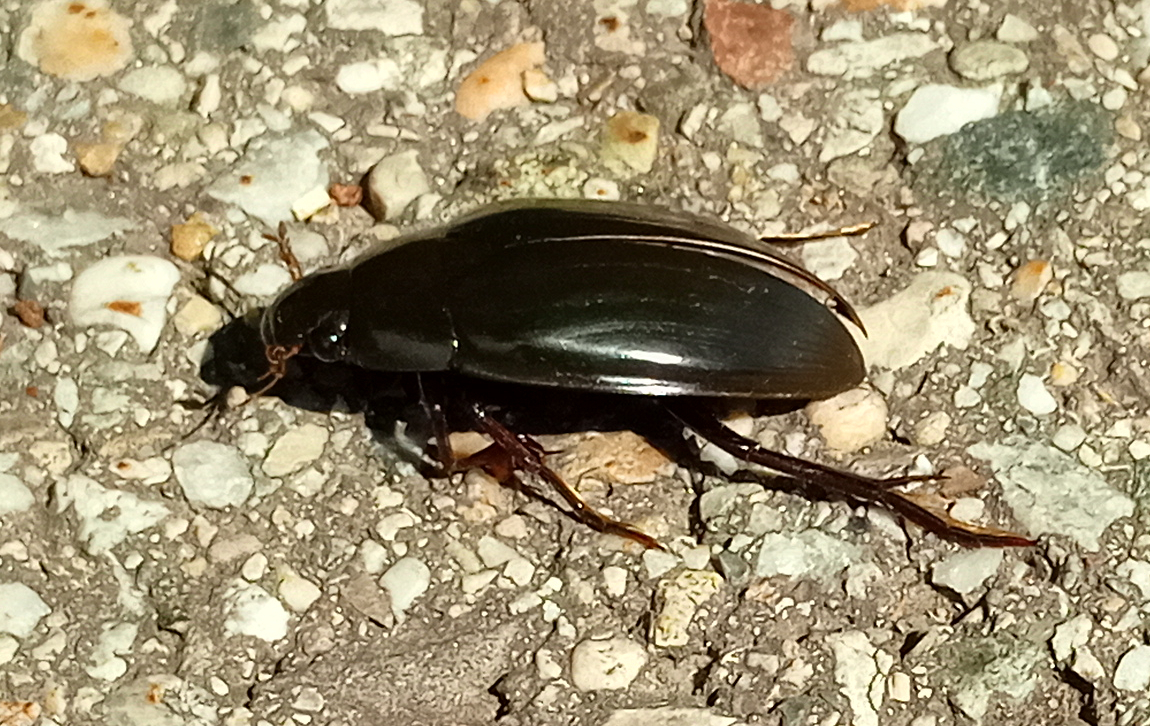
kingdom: Animalia
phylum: Arthropoda
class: Insecta
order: Coleoptera
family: Hydrophilidae
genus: Hydrophilus
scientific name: Hydrophilus piceus
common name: Great silver water beetle
